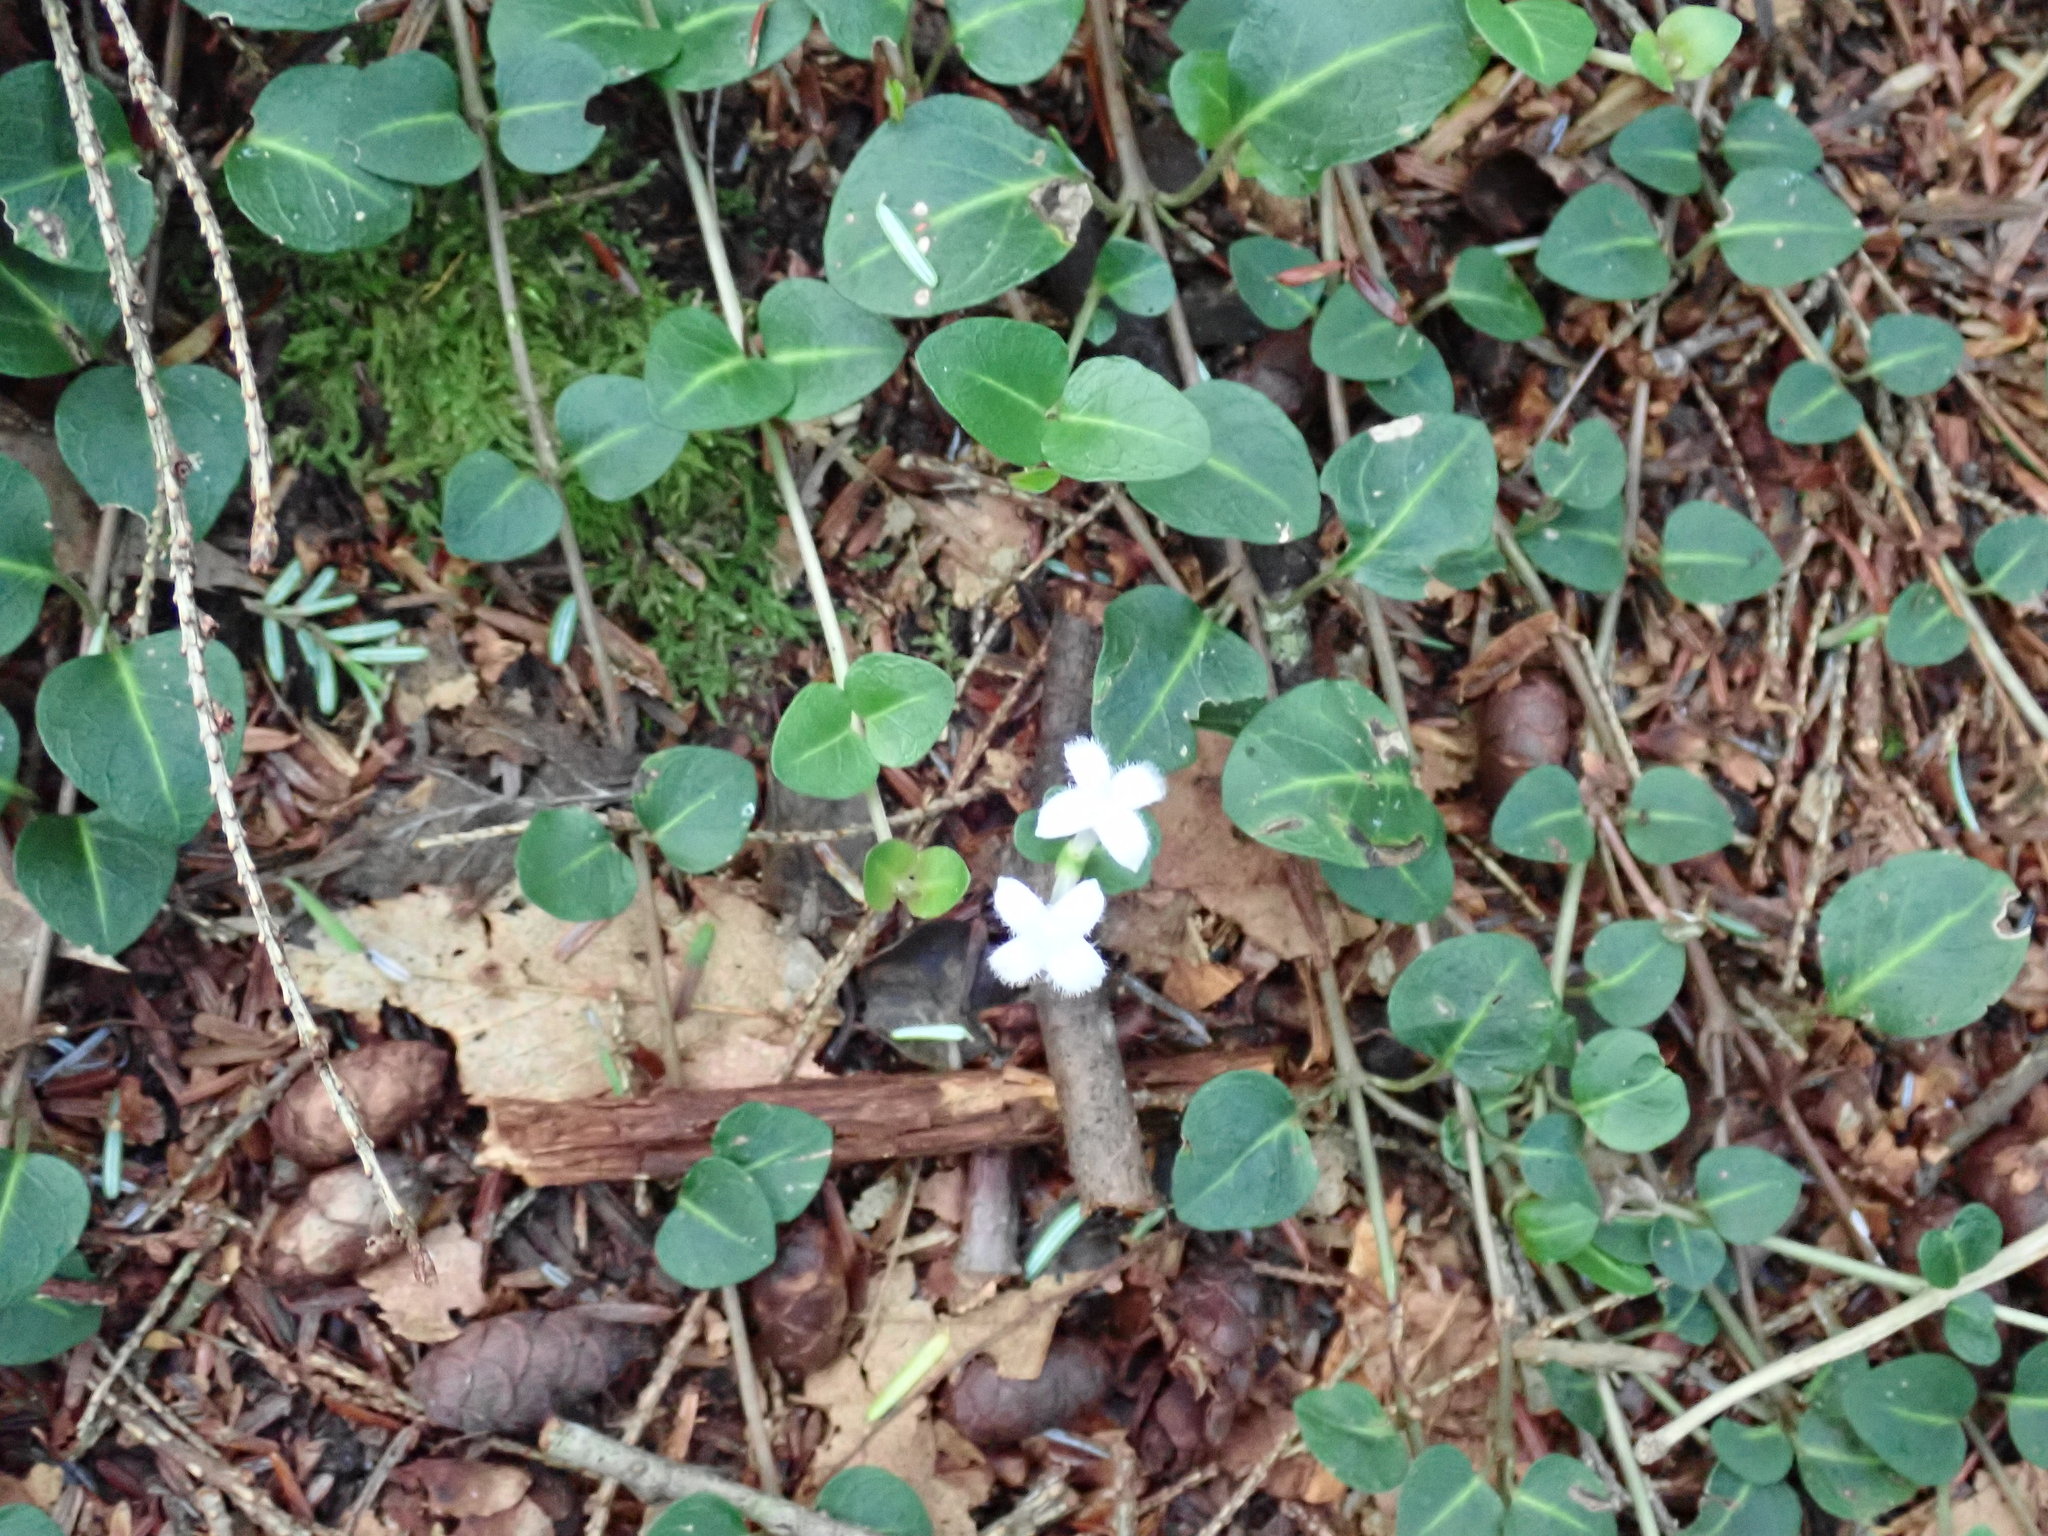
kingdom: Plantae
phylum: Tracheophyta
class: Magnoliopsida
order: Gentianales
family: Rubiaceae
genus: Mitchella
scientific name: Mitchella repens
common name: Partridge-berry
